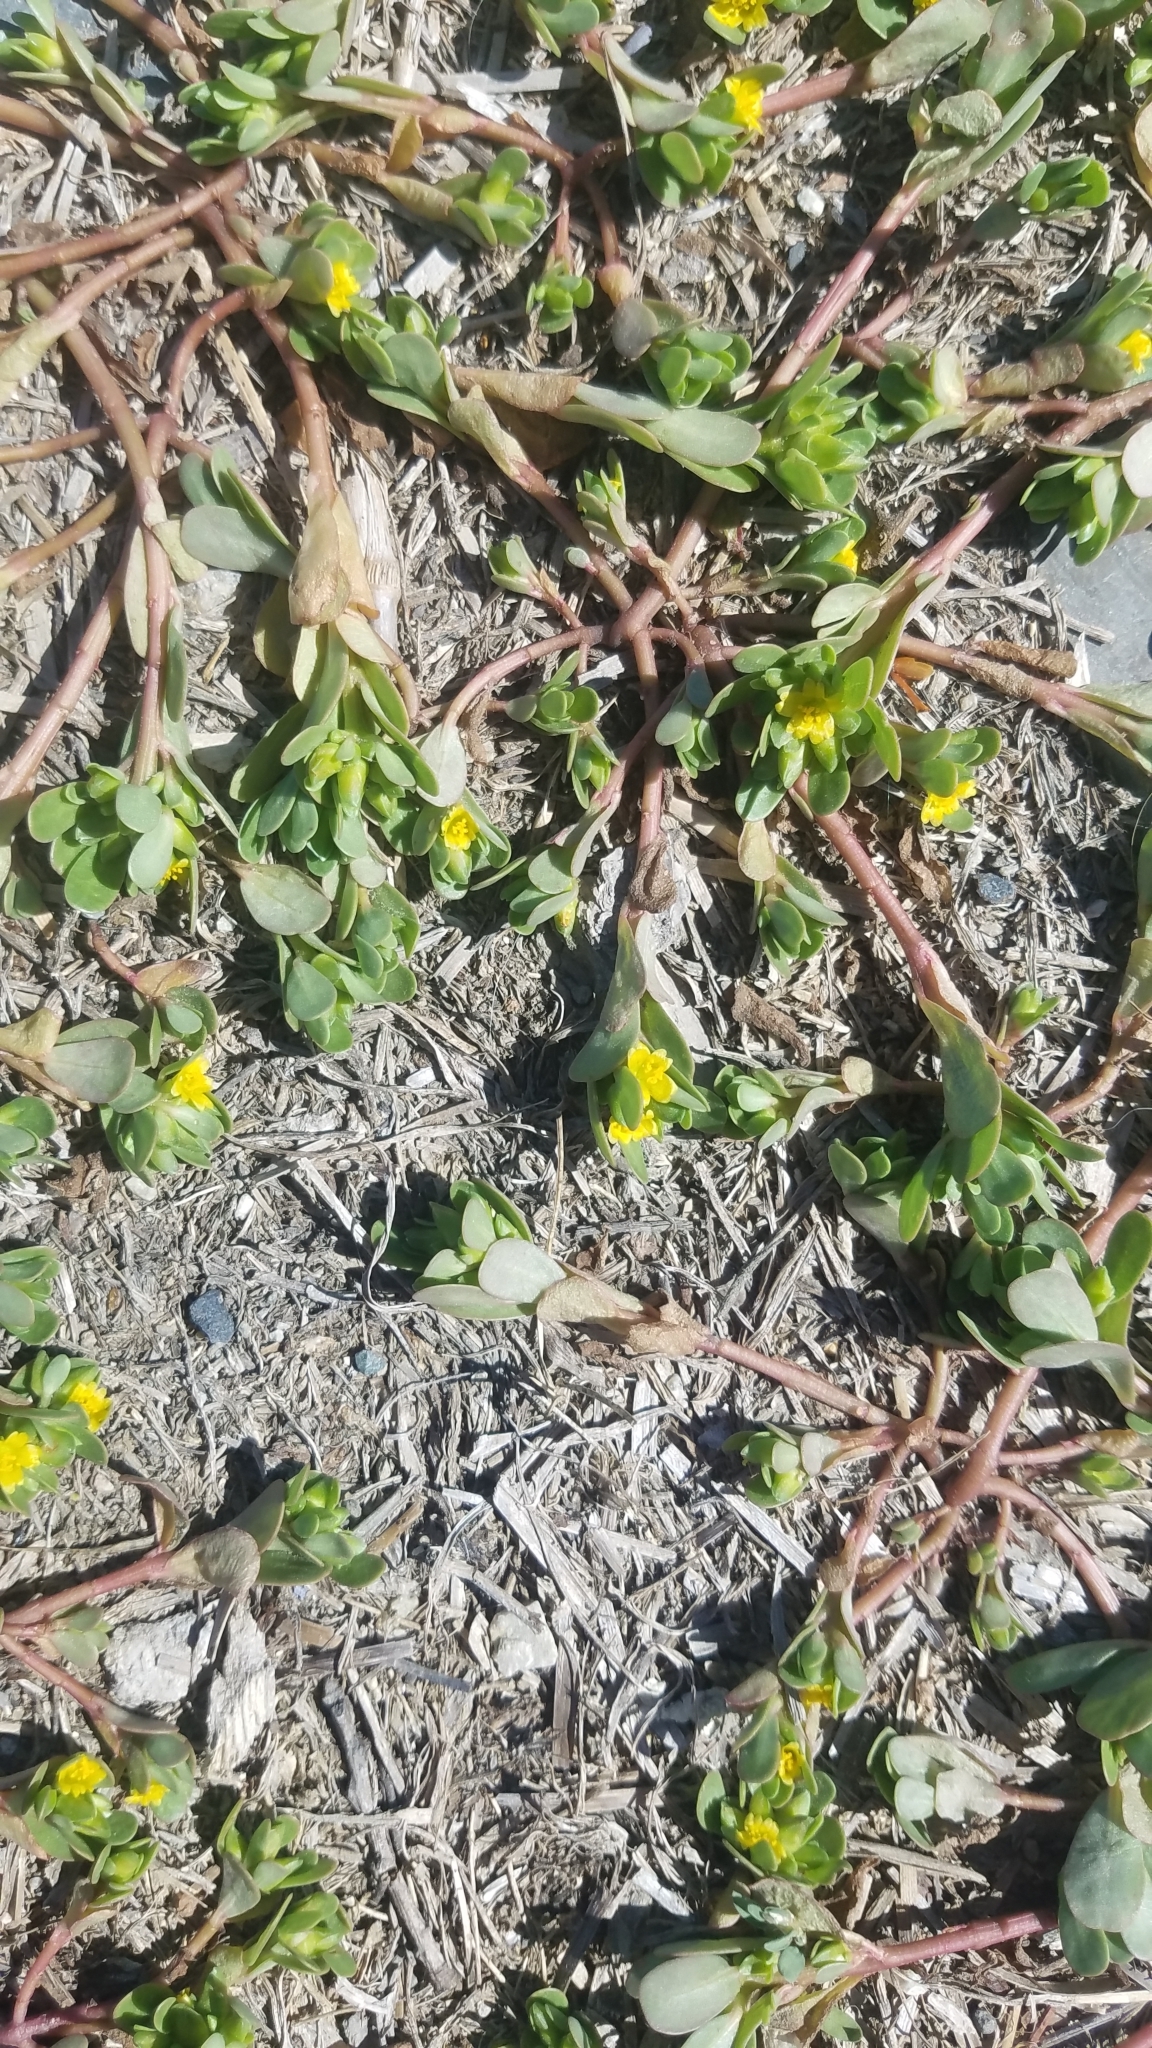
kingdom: Plantae
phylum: Tracheophyta
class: Magnoliopsida
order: Caryophyllales
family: Portulacaceae
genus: Portulaca
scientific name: Portulaca oleracea
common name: Common purslane
